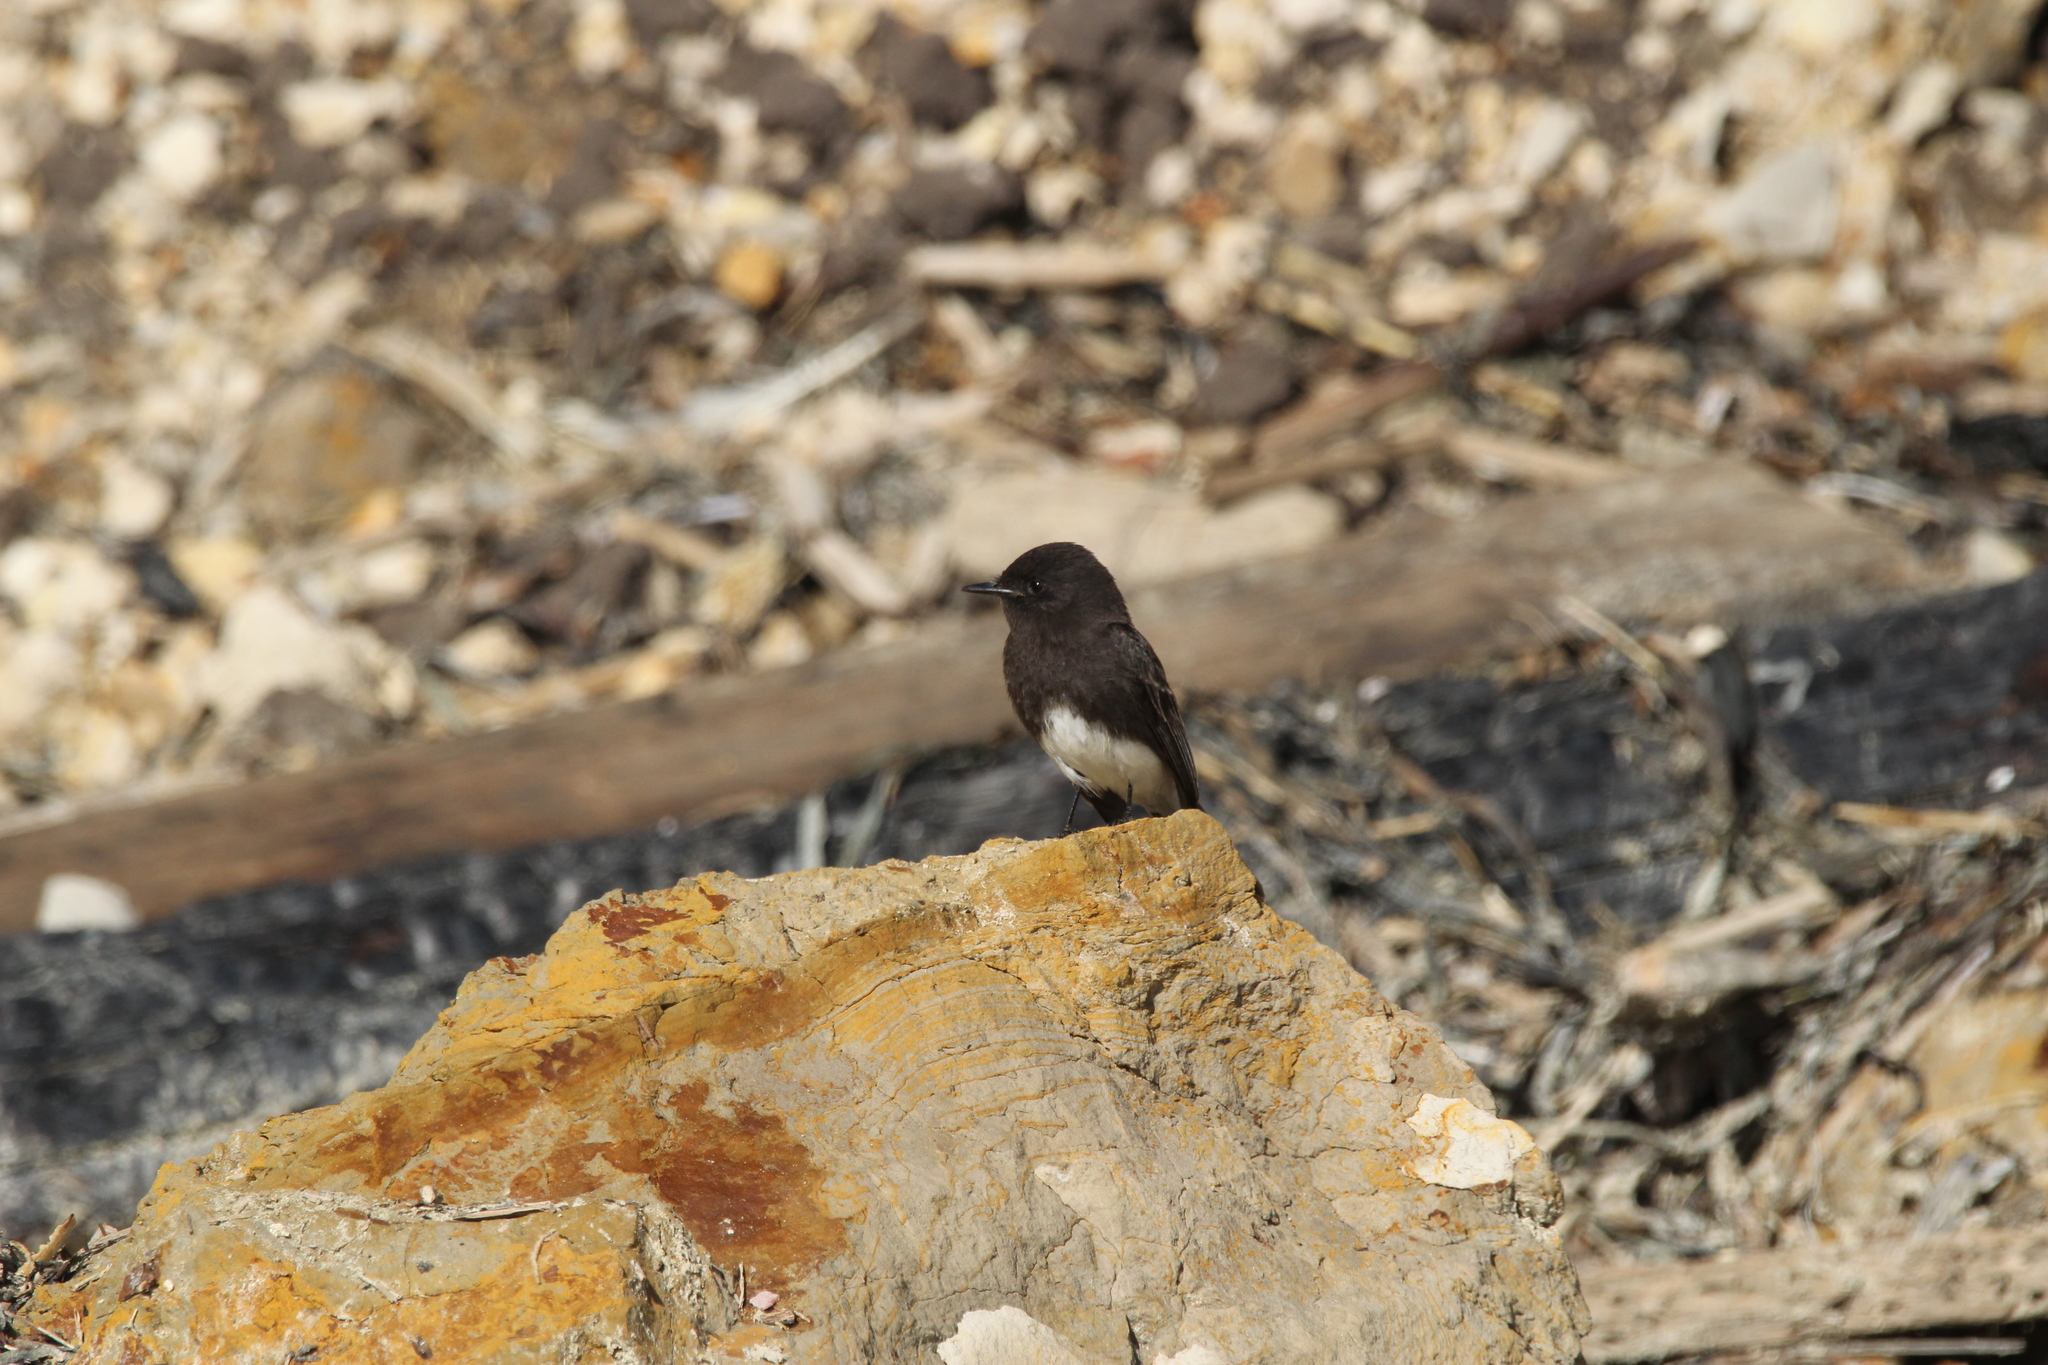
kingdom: Animalia
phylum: Chordata
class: Aves
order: Passeriformes
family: Tyrannidae
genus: Sayornis
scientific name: Sayornis nigricans
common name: Black phoebe
